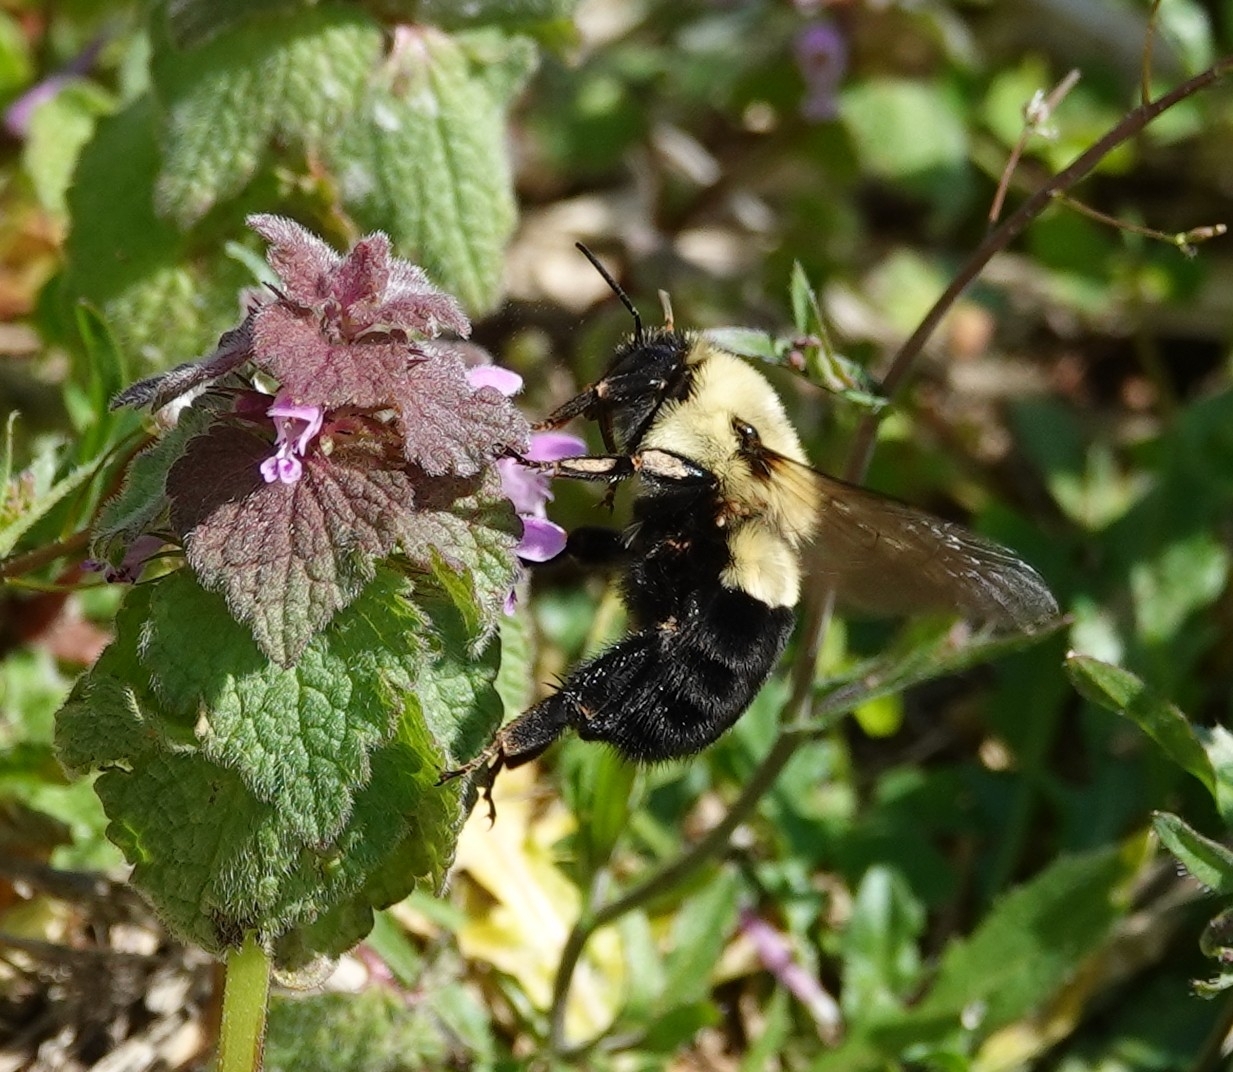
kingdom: Animalia
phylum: Arthropoda
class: Insecta
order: Hymenoptera
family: Apidae
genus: Bombus
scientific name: Bombus impatiens
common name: Common eastern bumble bee
